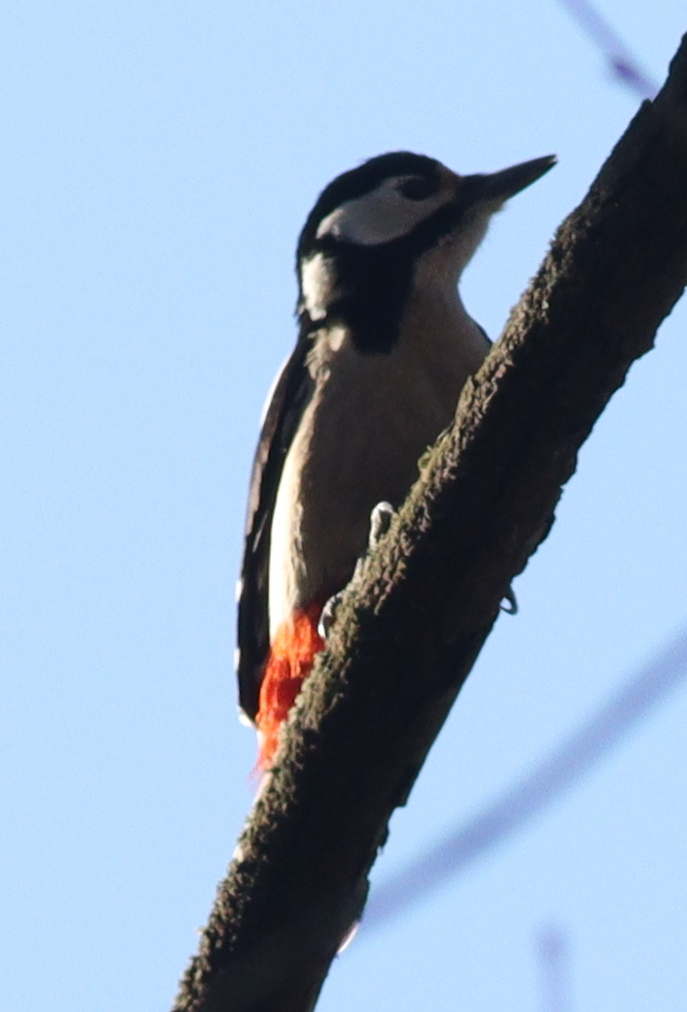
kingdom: Animalia
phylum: Chordata
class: Aves
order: Piciformes
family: Picidae
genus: Dendrocopos
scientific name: Dendrocopos major
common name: Great spotted woodpecker
